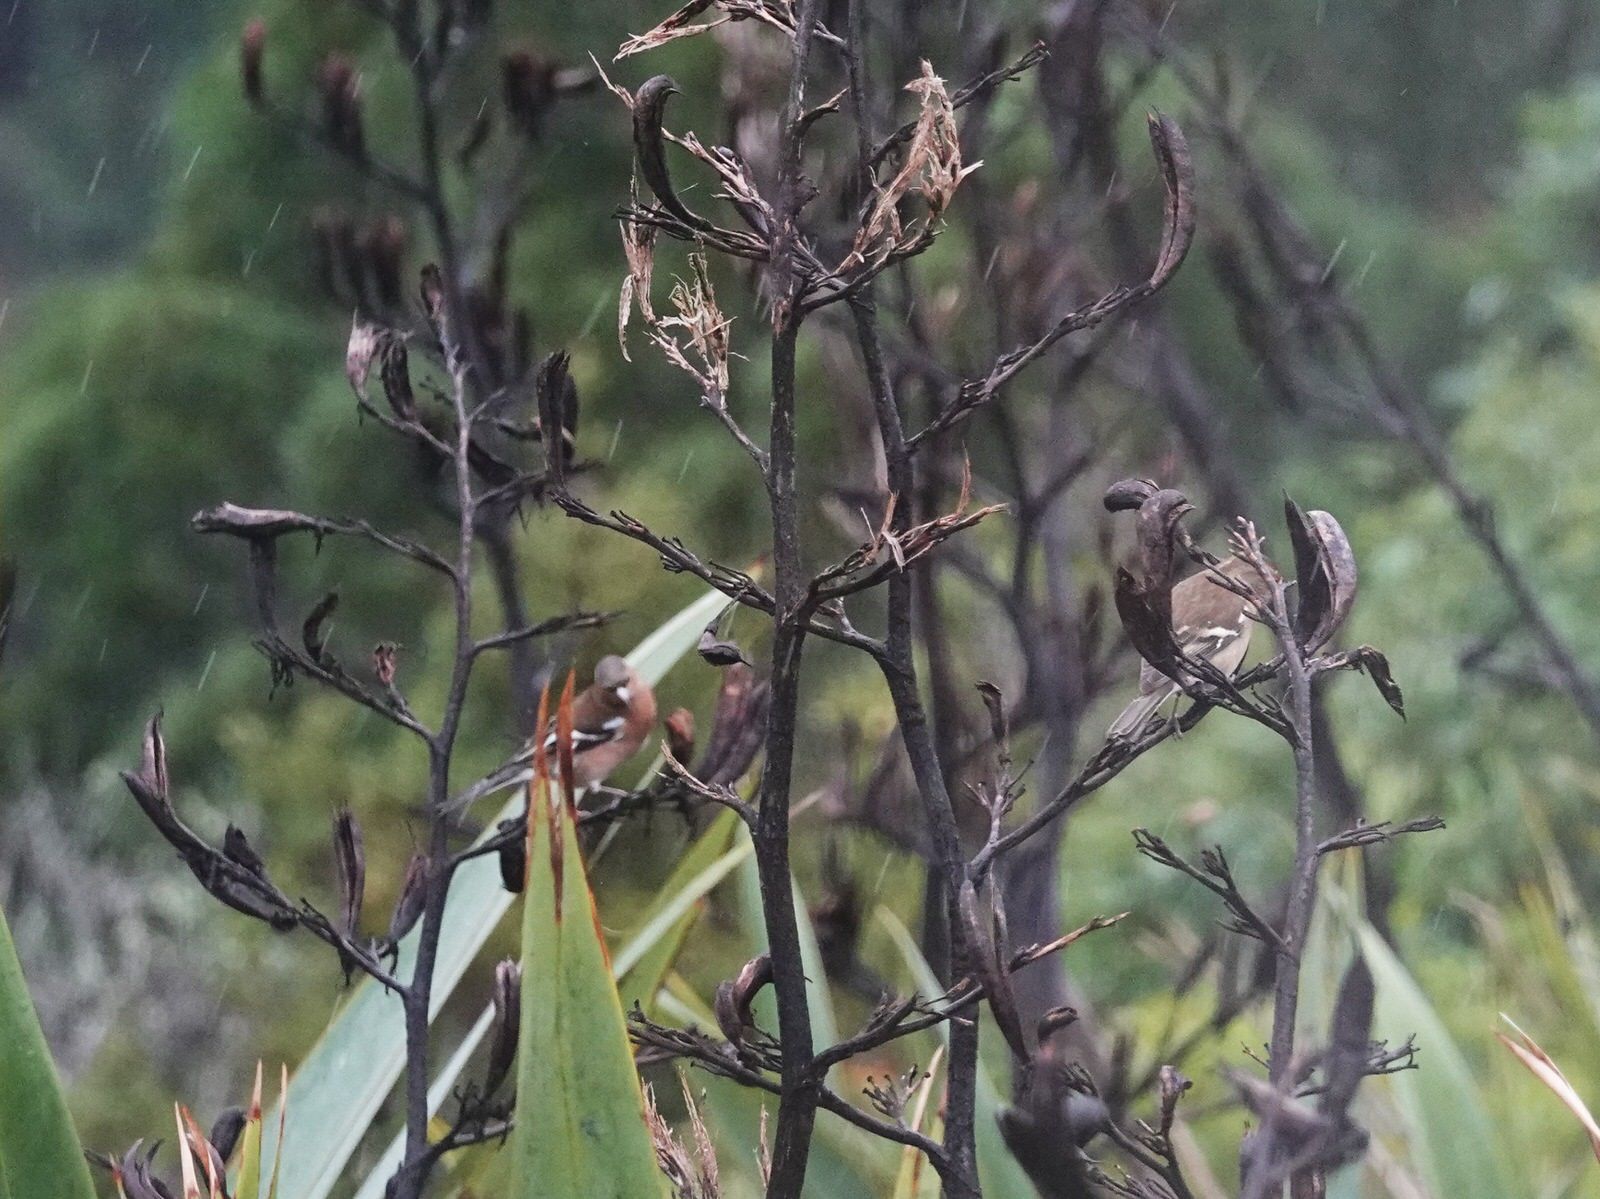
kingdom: Animalia
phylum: Chordata
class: Aves
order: Passeriformes
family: Fringillidae
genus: Fringilla
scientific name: Fringilla coelebs
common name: Common chaffinch
